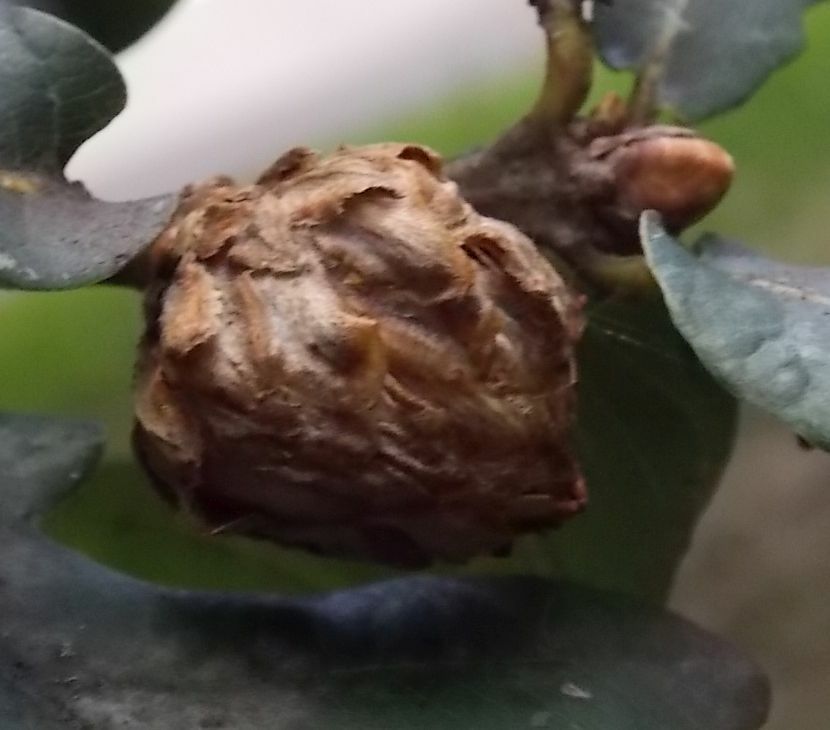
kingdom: Animalia
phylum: Arthropoda
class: Insecta
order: Hymenoptera
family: Cynipidae
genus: Andricus
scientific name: Andricus foecundatrix
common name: Artichoke gall
